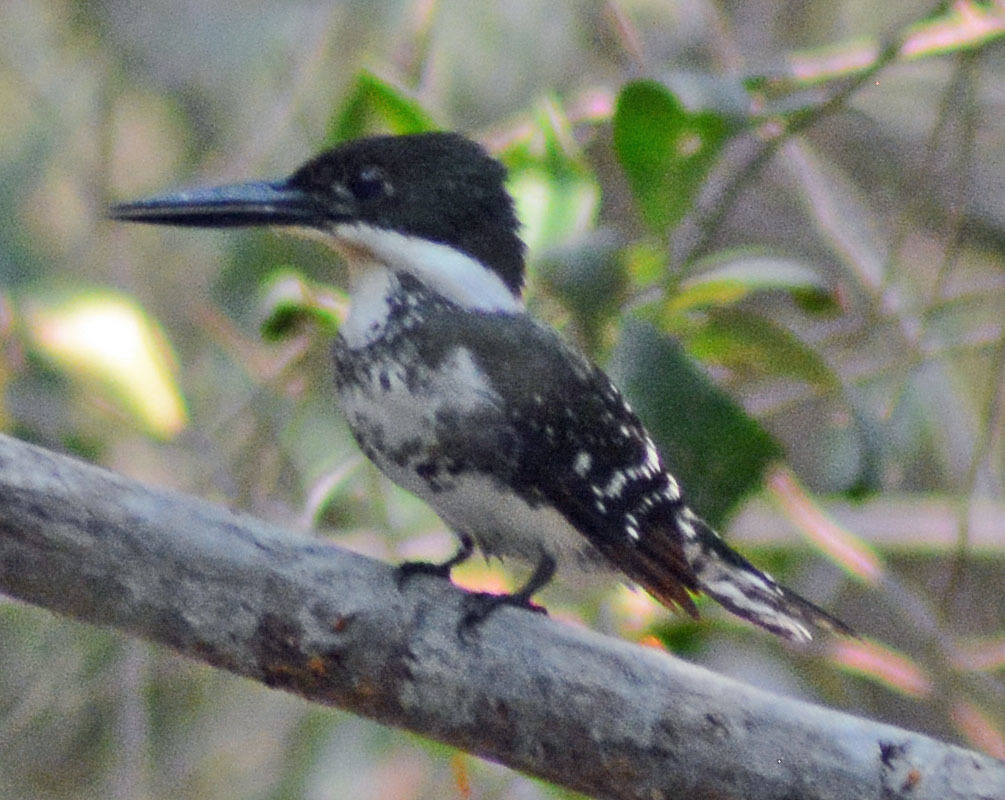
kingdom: Animalia
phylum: Chordata
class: Aves
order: Coraciiformes
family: Alcedinidae
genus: Chloroceryle
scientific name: Chloroceryle americana
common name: Green kingfisher
